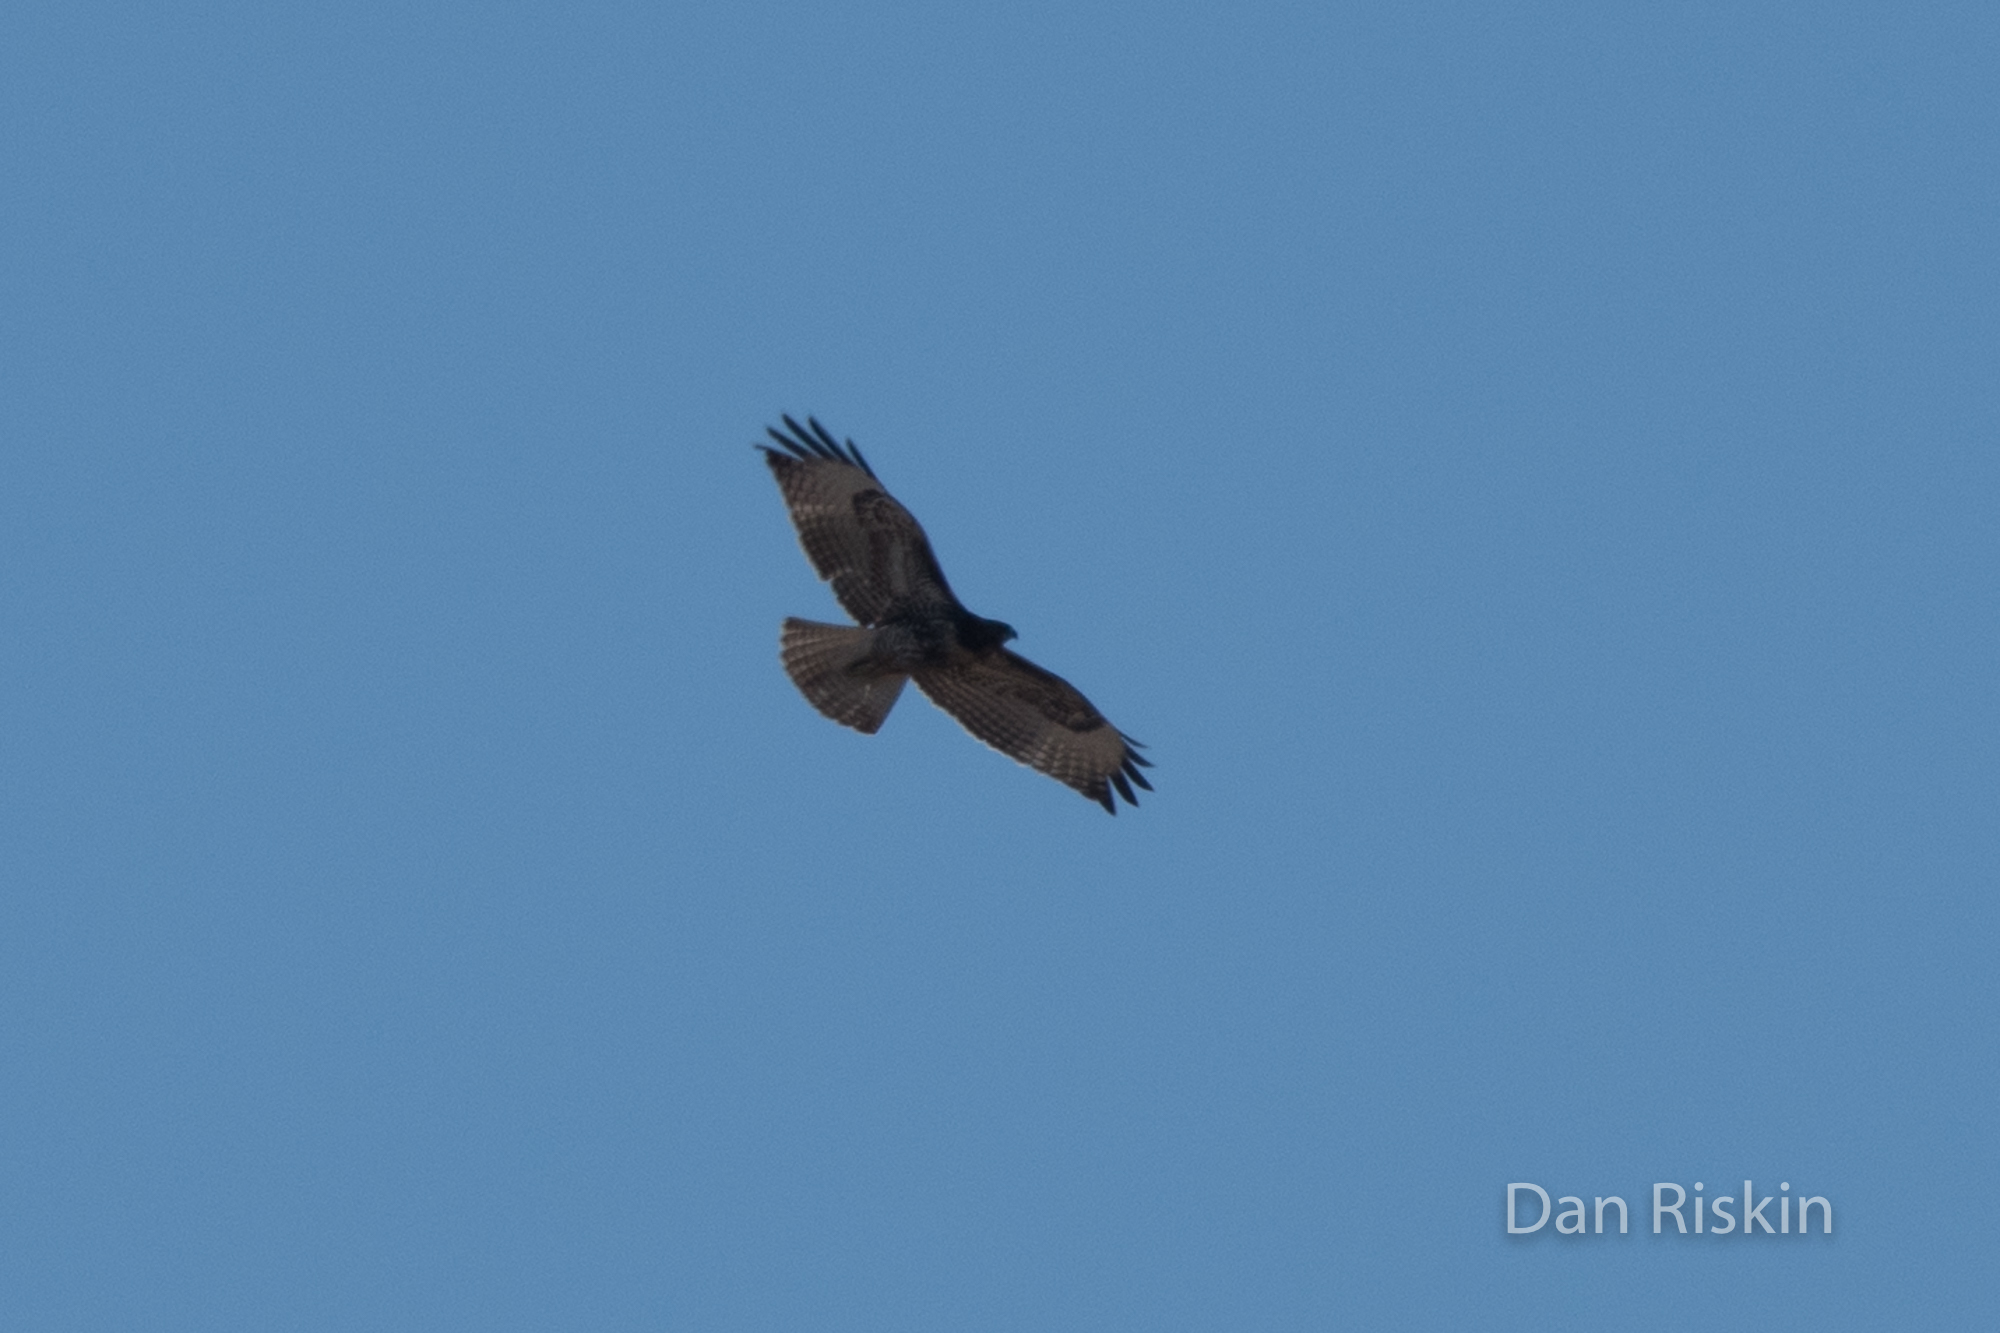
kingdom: Animalia
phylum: Chordata
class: Aves
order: Accipitriformes
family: Accipitridae
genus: Buteo
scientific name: Buteo jamaicensis
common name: Red-tailed hawk
